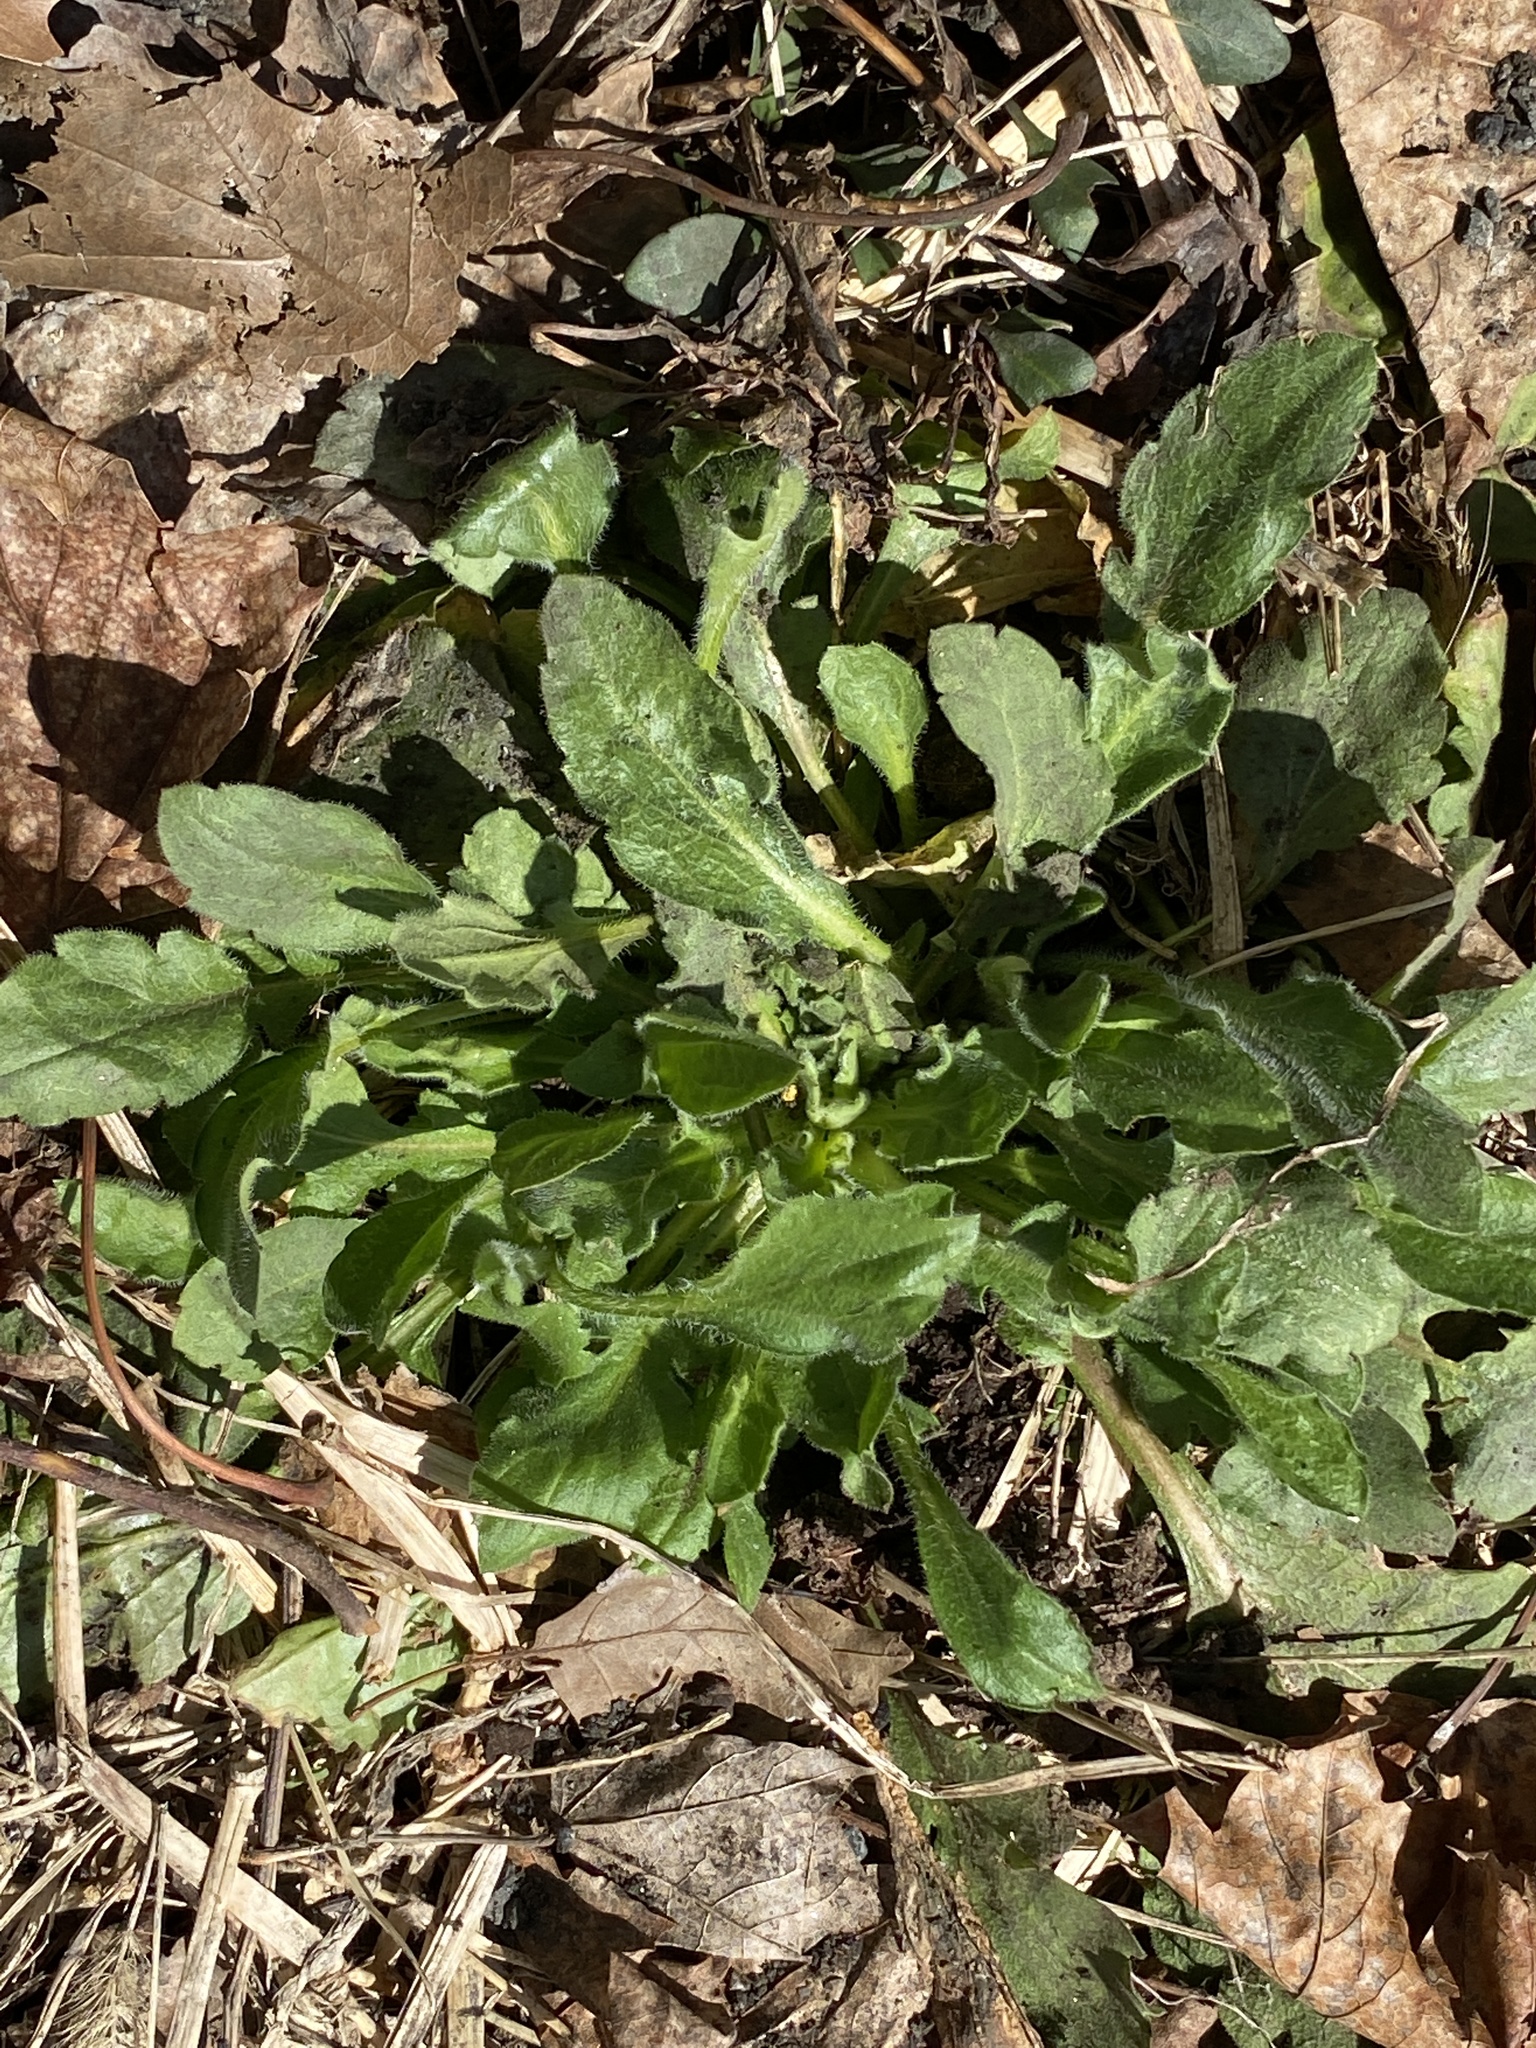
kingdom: Plantae
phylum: Tracheophyta
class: Magnoliopsida
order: Asterales
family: Asteraceae
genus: Erigeron
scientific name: Erigeron canadensis
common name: Canadian fleabane
